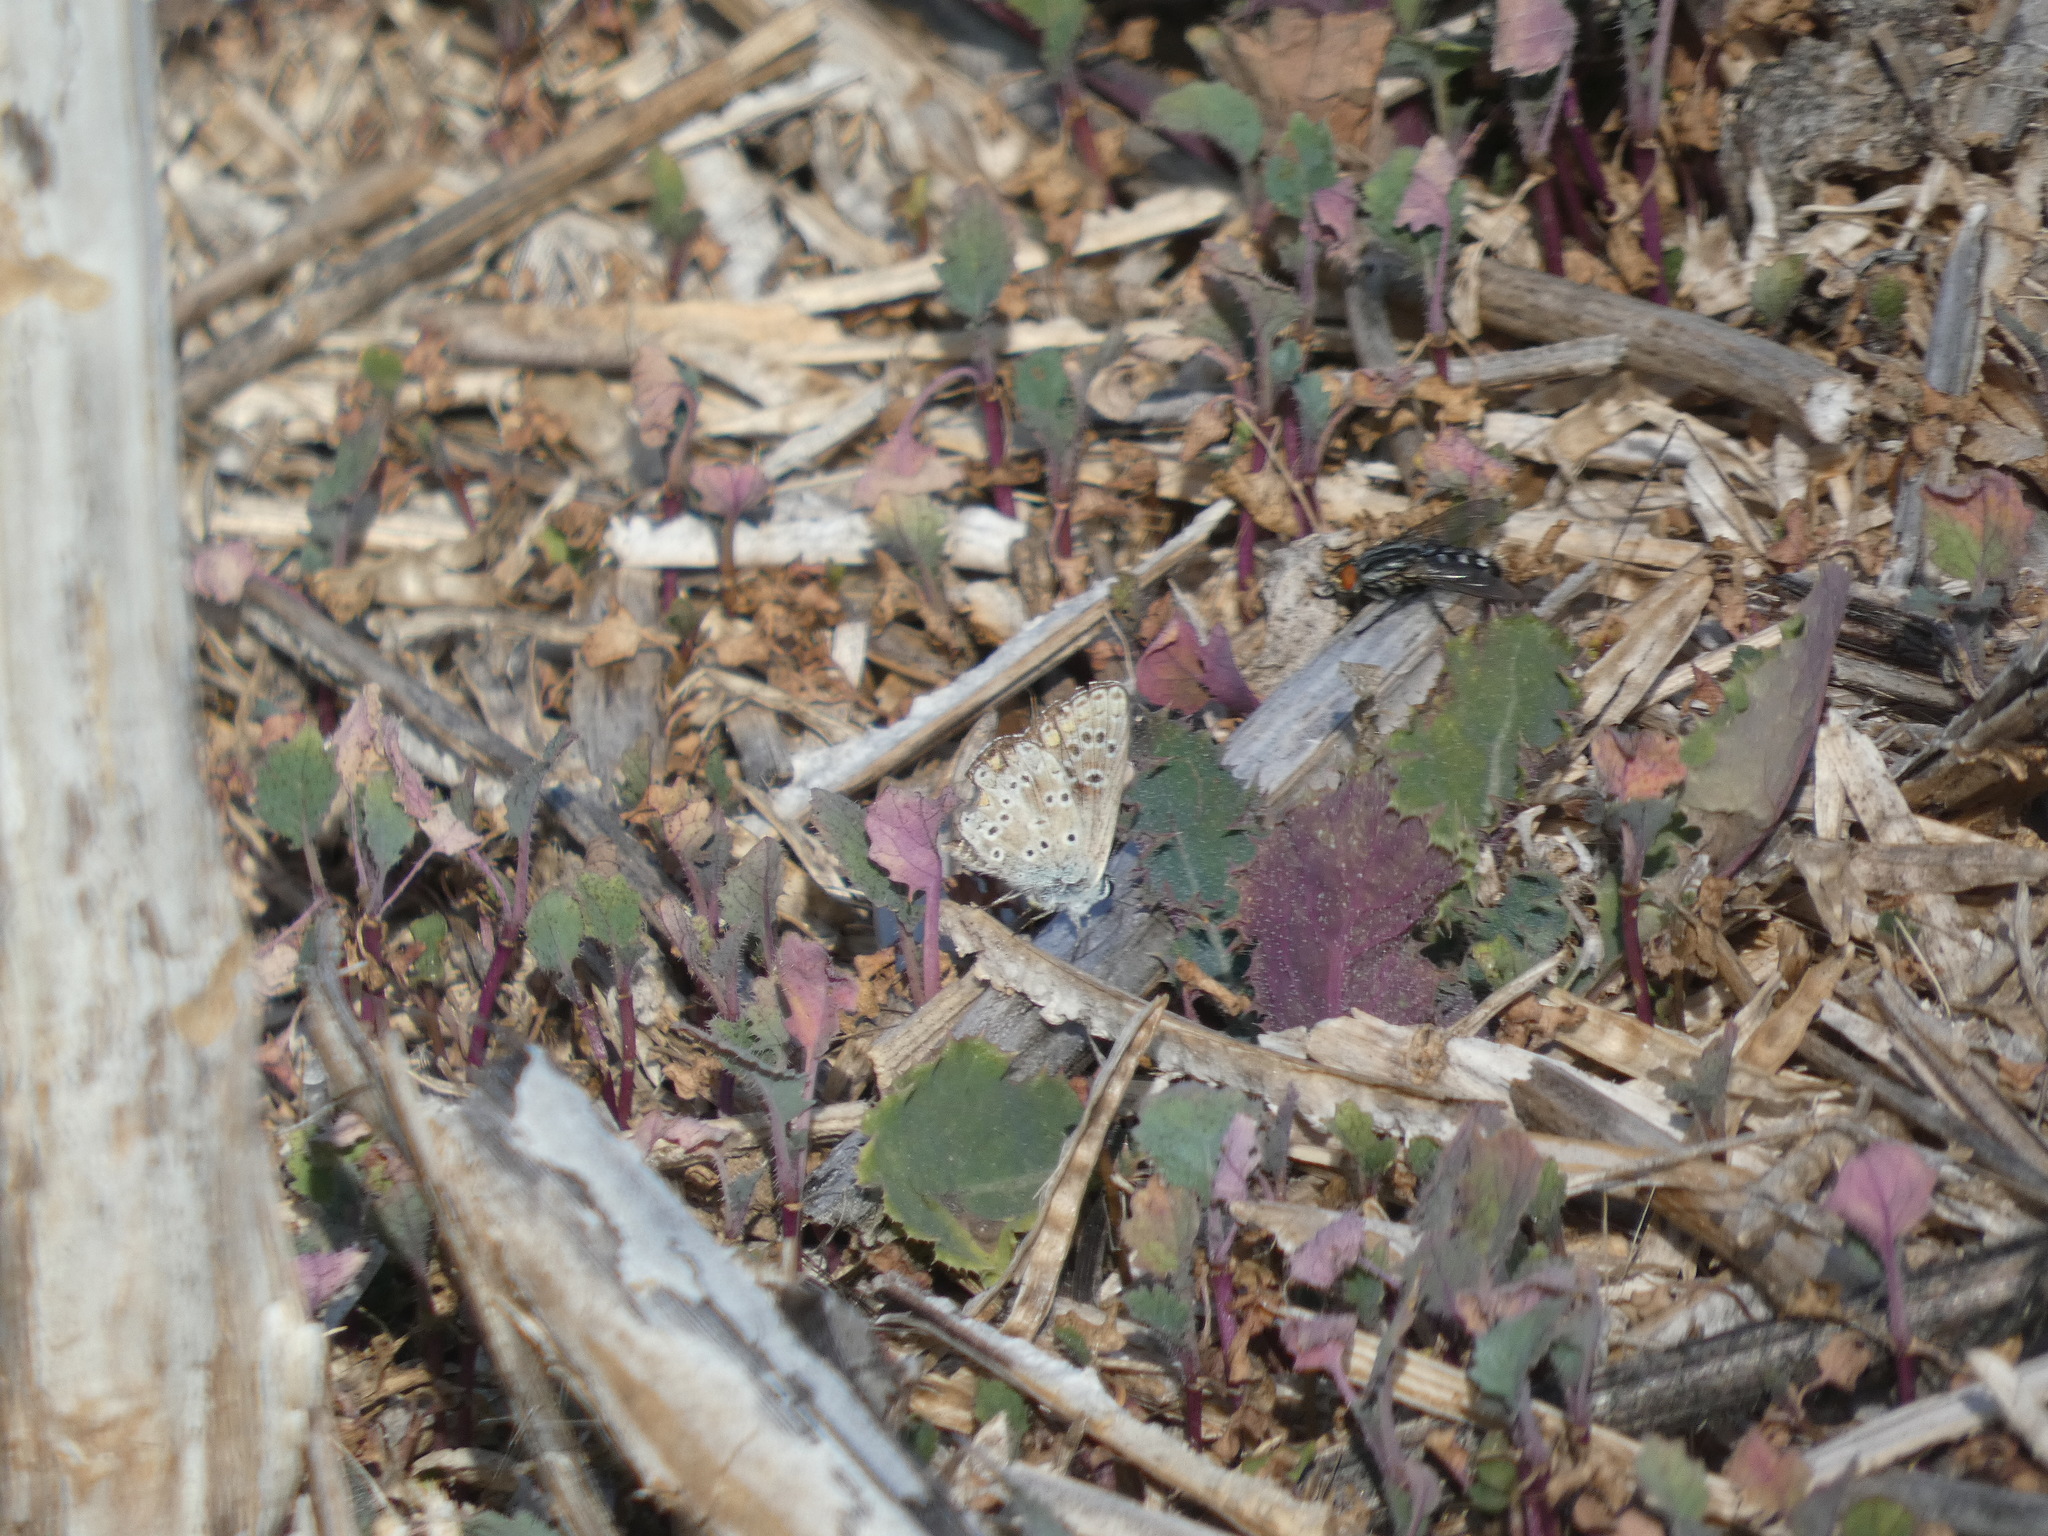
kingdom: Animalia
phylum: Arthropoda
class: Insecta
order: Lepidoptera
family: Lycaenidae
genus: Aricia
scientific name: Aricia agestis
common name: Brown argus
